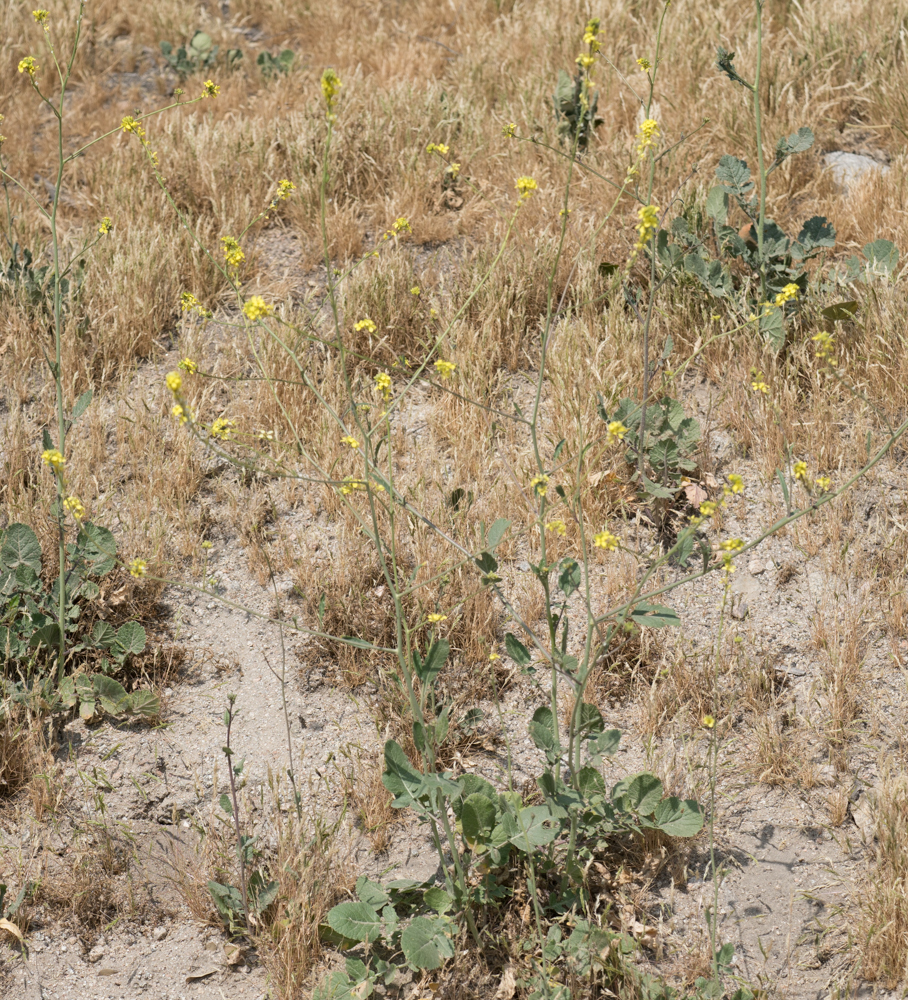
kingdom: Plantae
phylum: Tracheophyta
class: Magnoliopsida
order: Brassicales
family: Brassicaceae
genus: Hirschfeldia
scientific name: Hirschfeldia incana
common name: Hoary mustard
